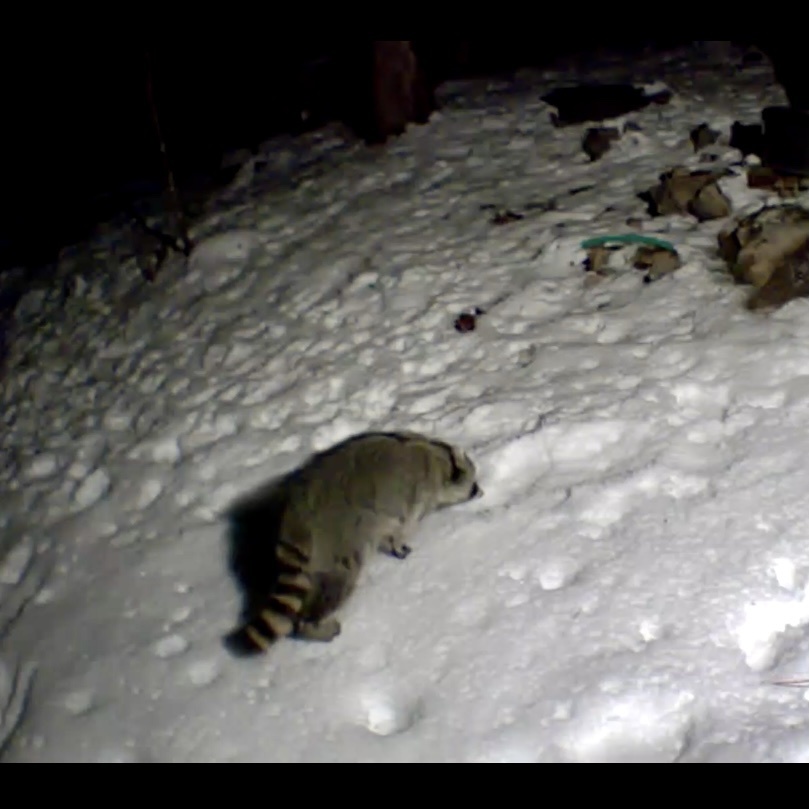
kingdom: Animalia
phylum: Chordata
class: Mammalia
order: Carnivora
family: Procyonidae
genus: Procyon
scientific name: Procyon lotor
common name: Raccoon
